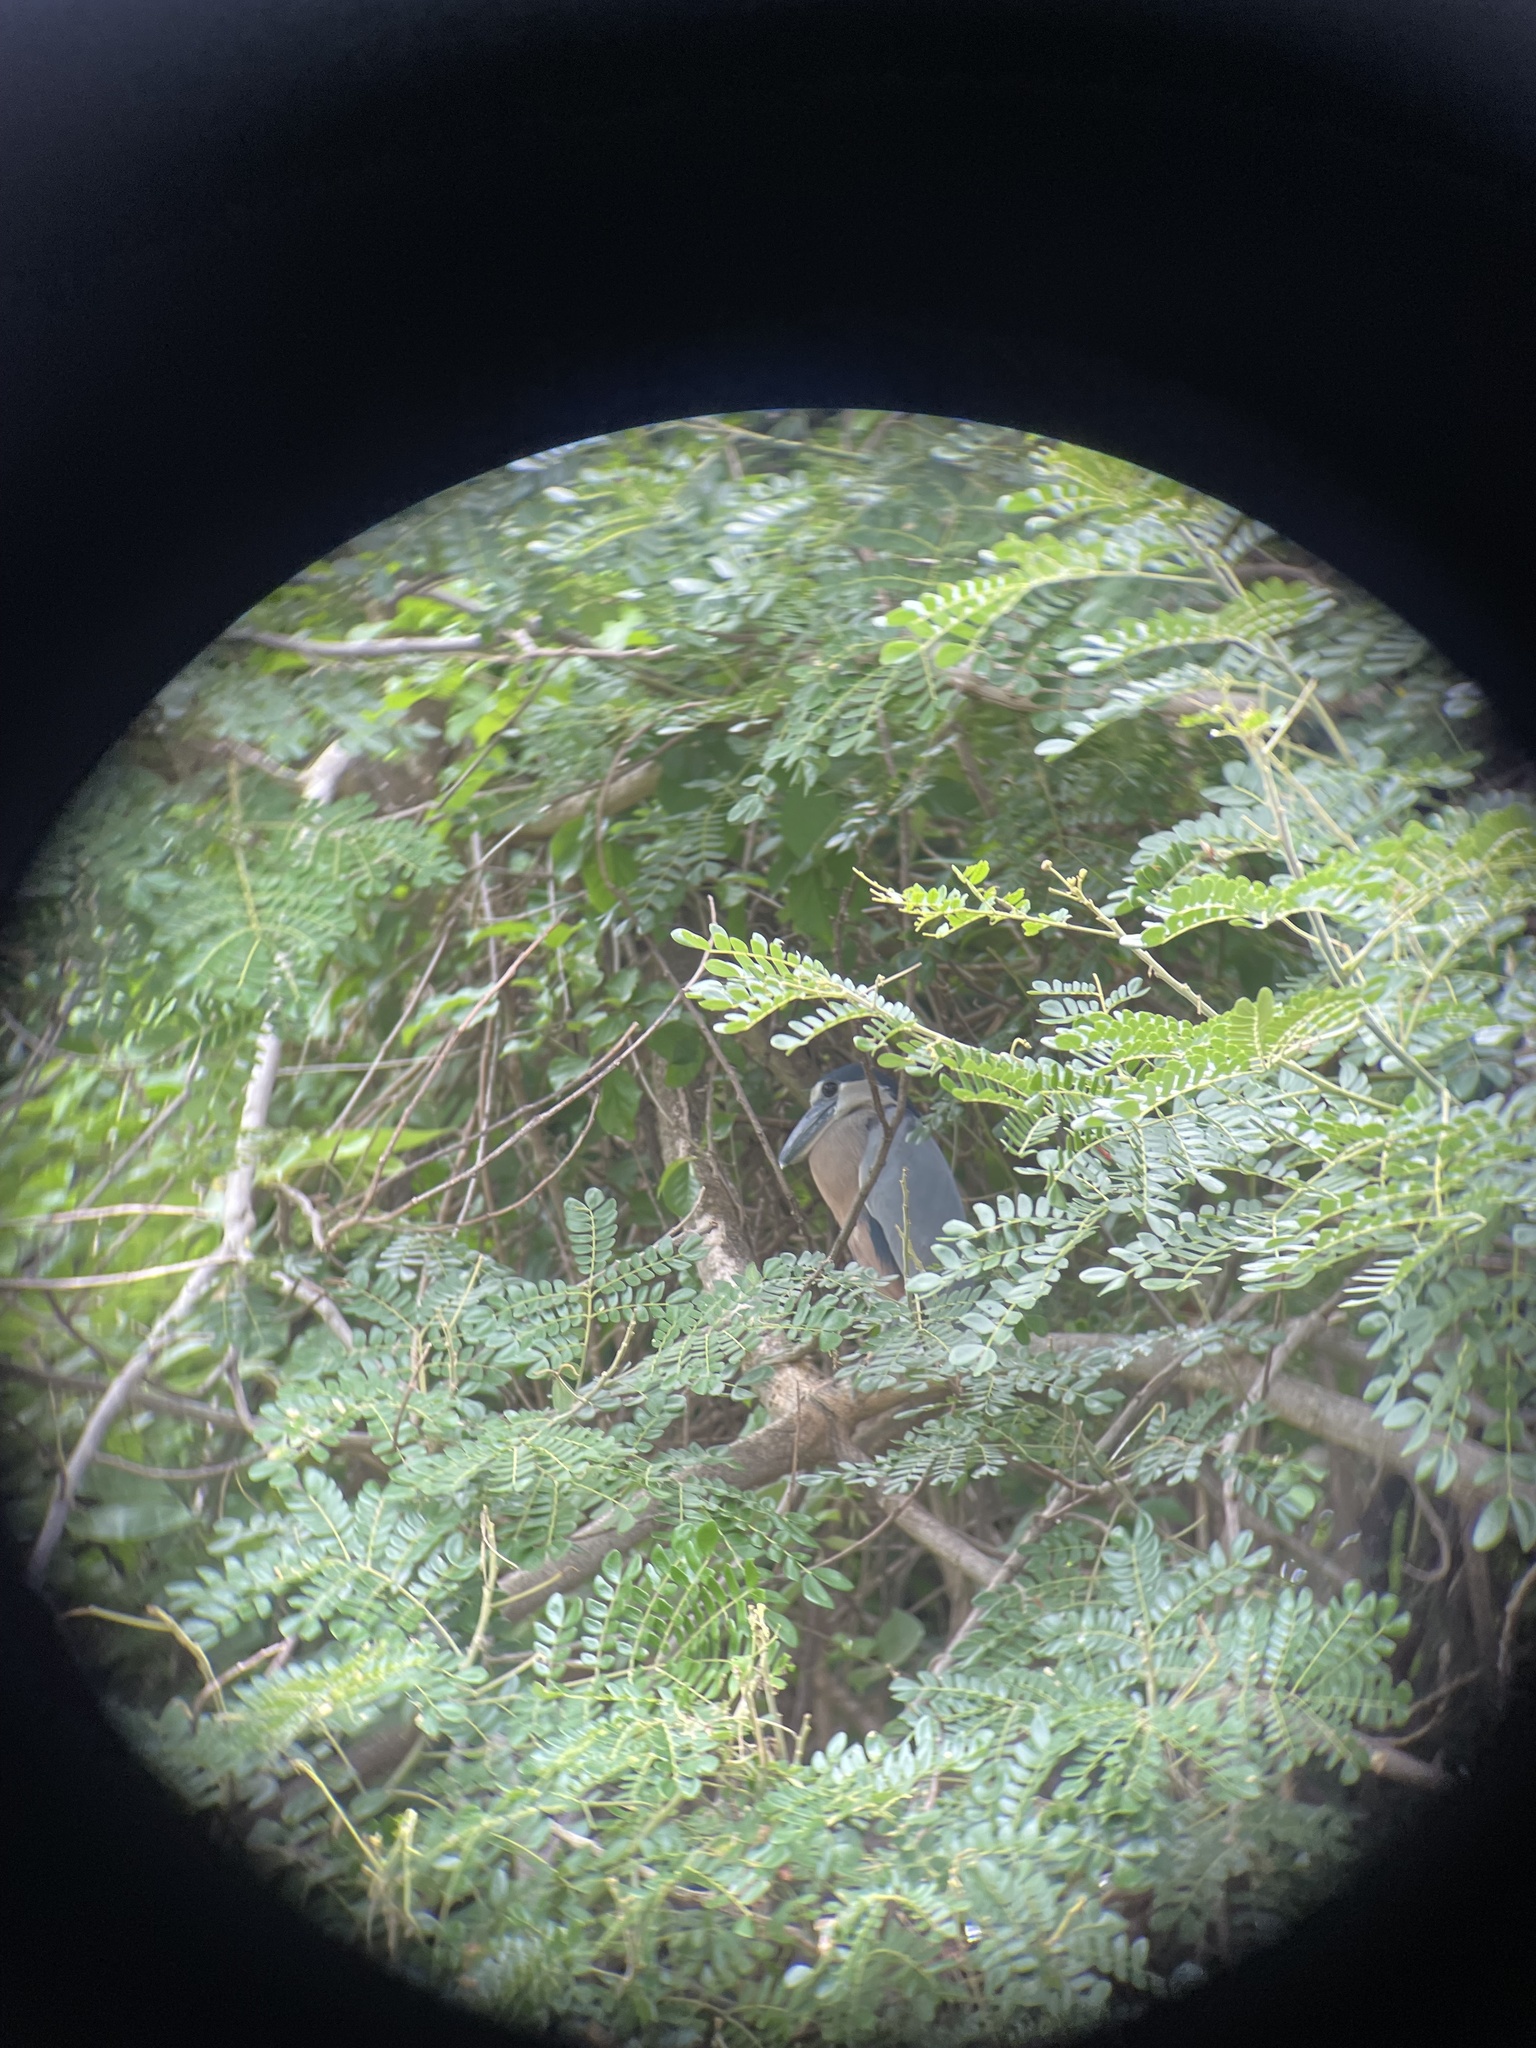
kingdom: Animalia
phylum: Chordata
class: Aves
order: Pelecaniformes
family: Ardeidae
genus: Cochlearius
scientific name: Cochlearius cochlearius
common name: Boat-billed heron
